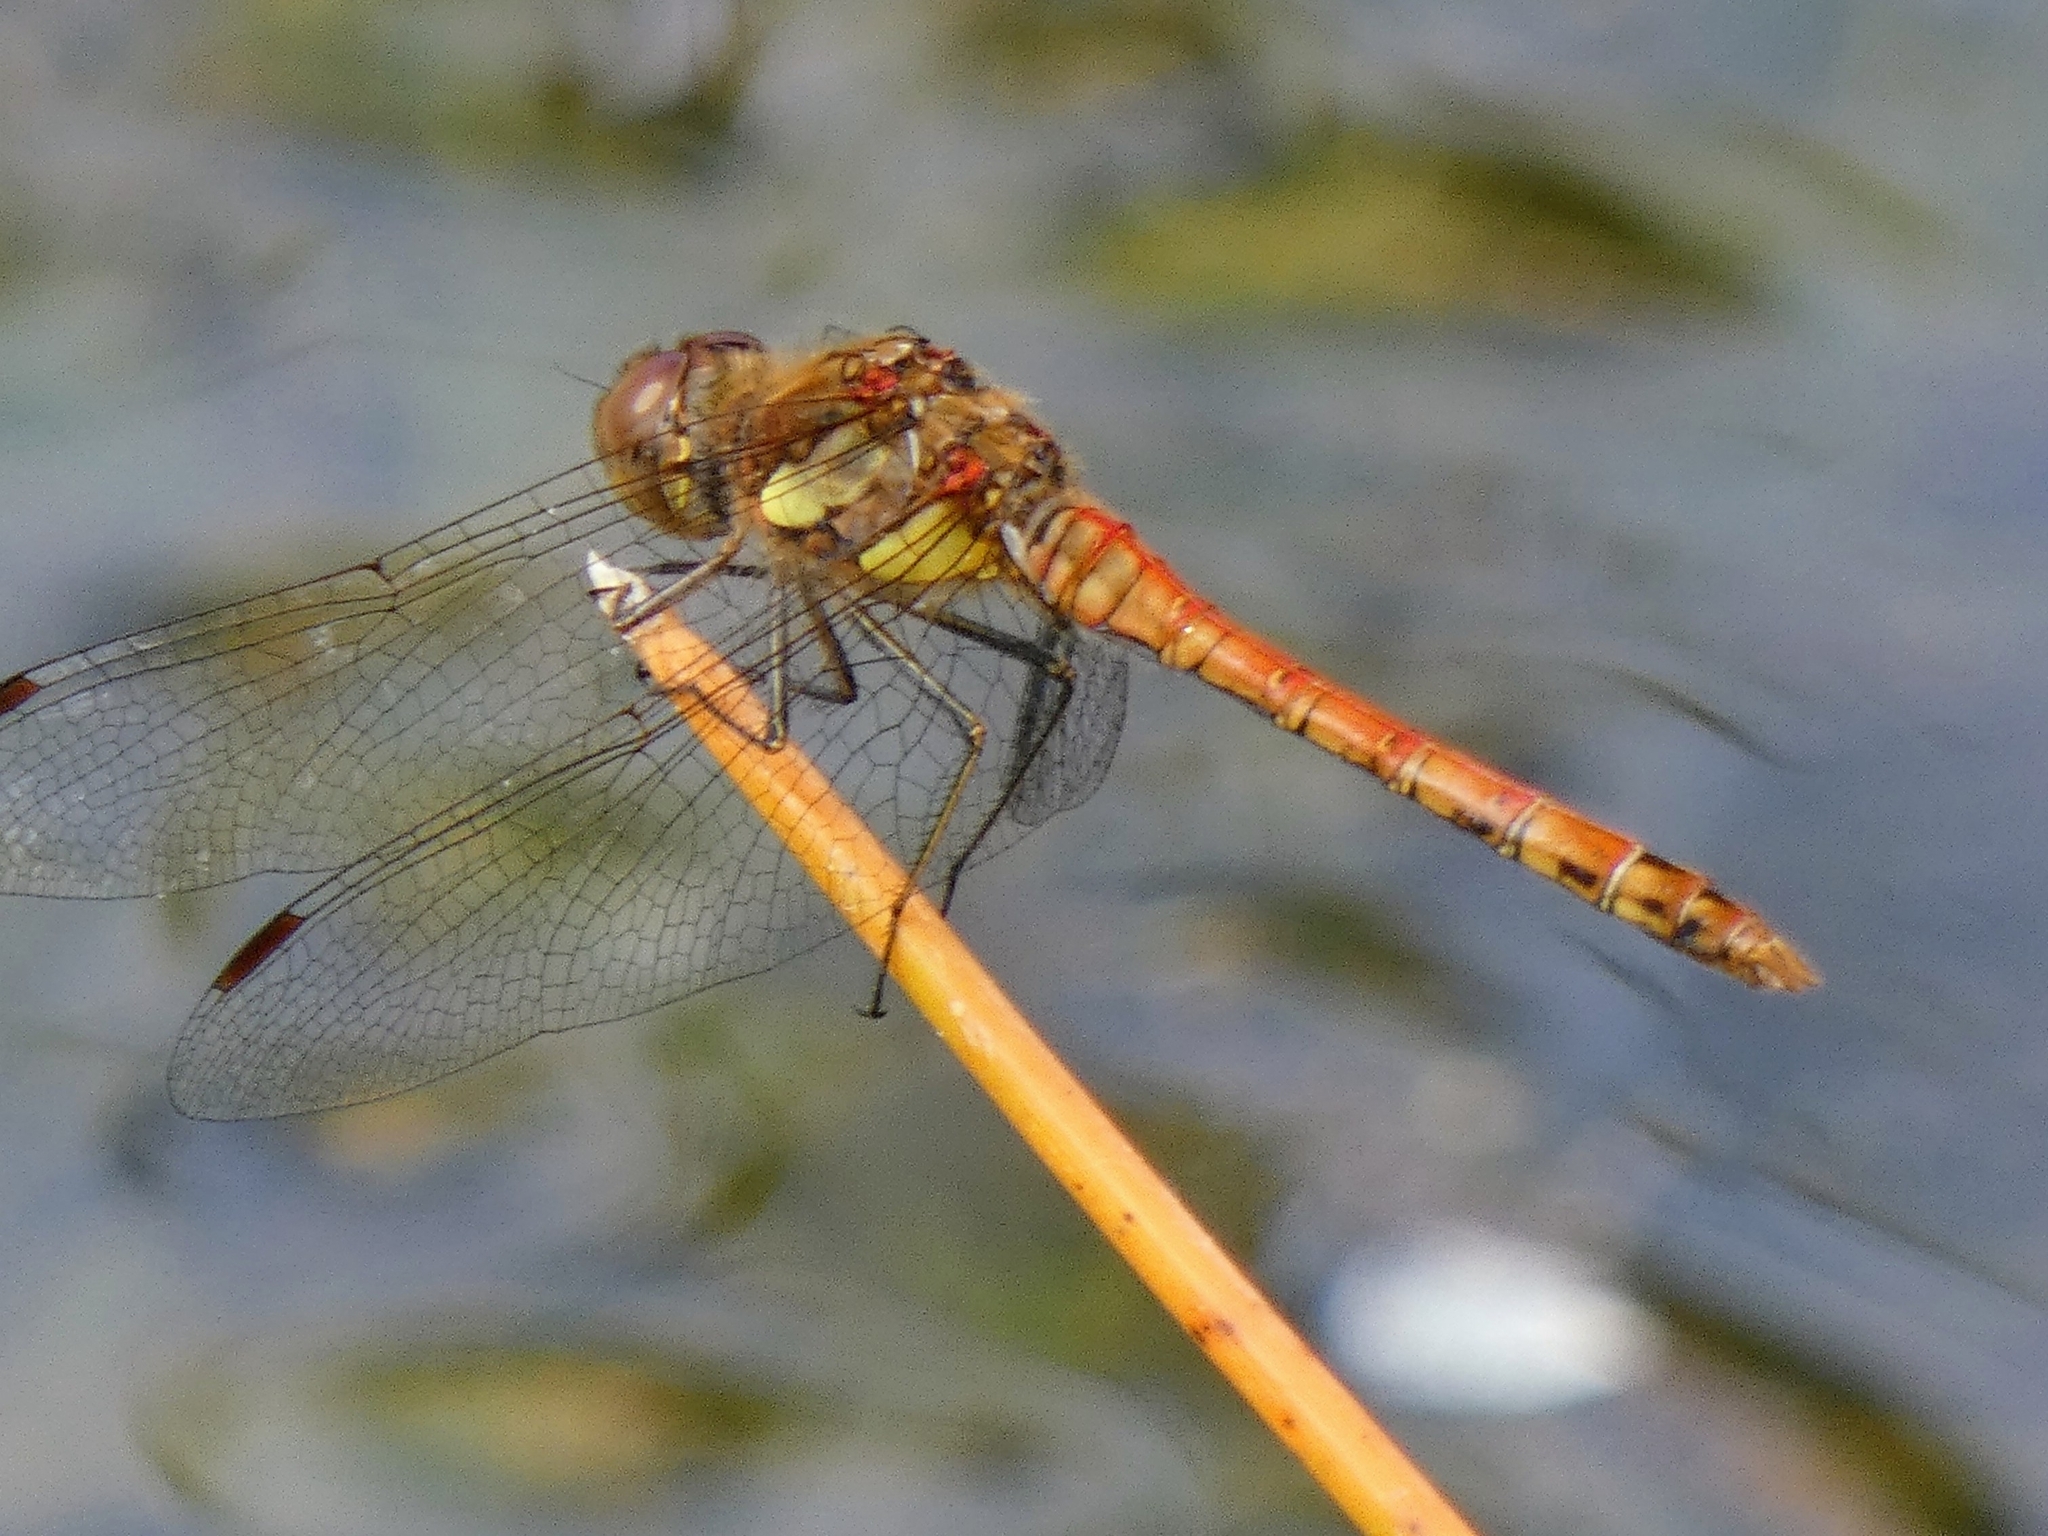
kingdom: Animalia
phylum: Arthropoda
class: Insecta
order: Odonata
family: Libellulidae
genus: Sympetrum
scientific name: Sympetrum striolatum
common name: Common darter
